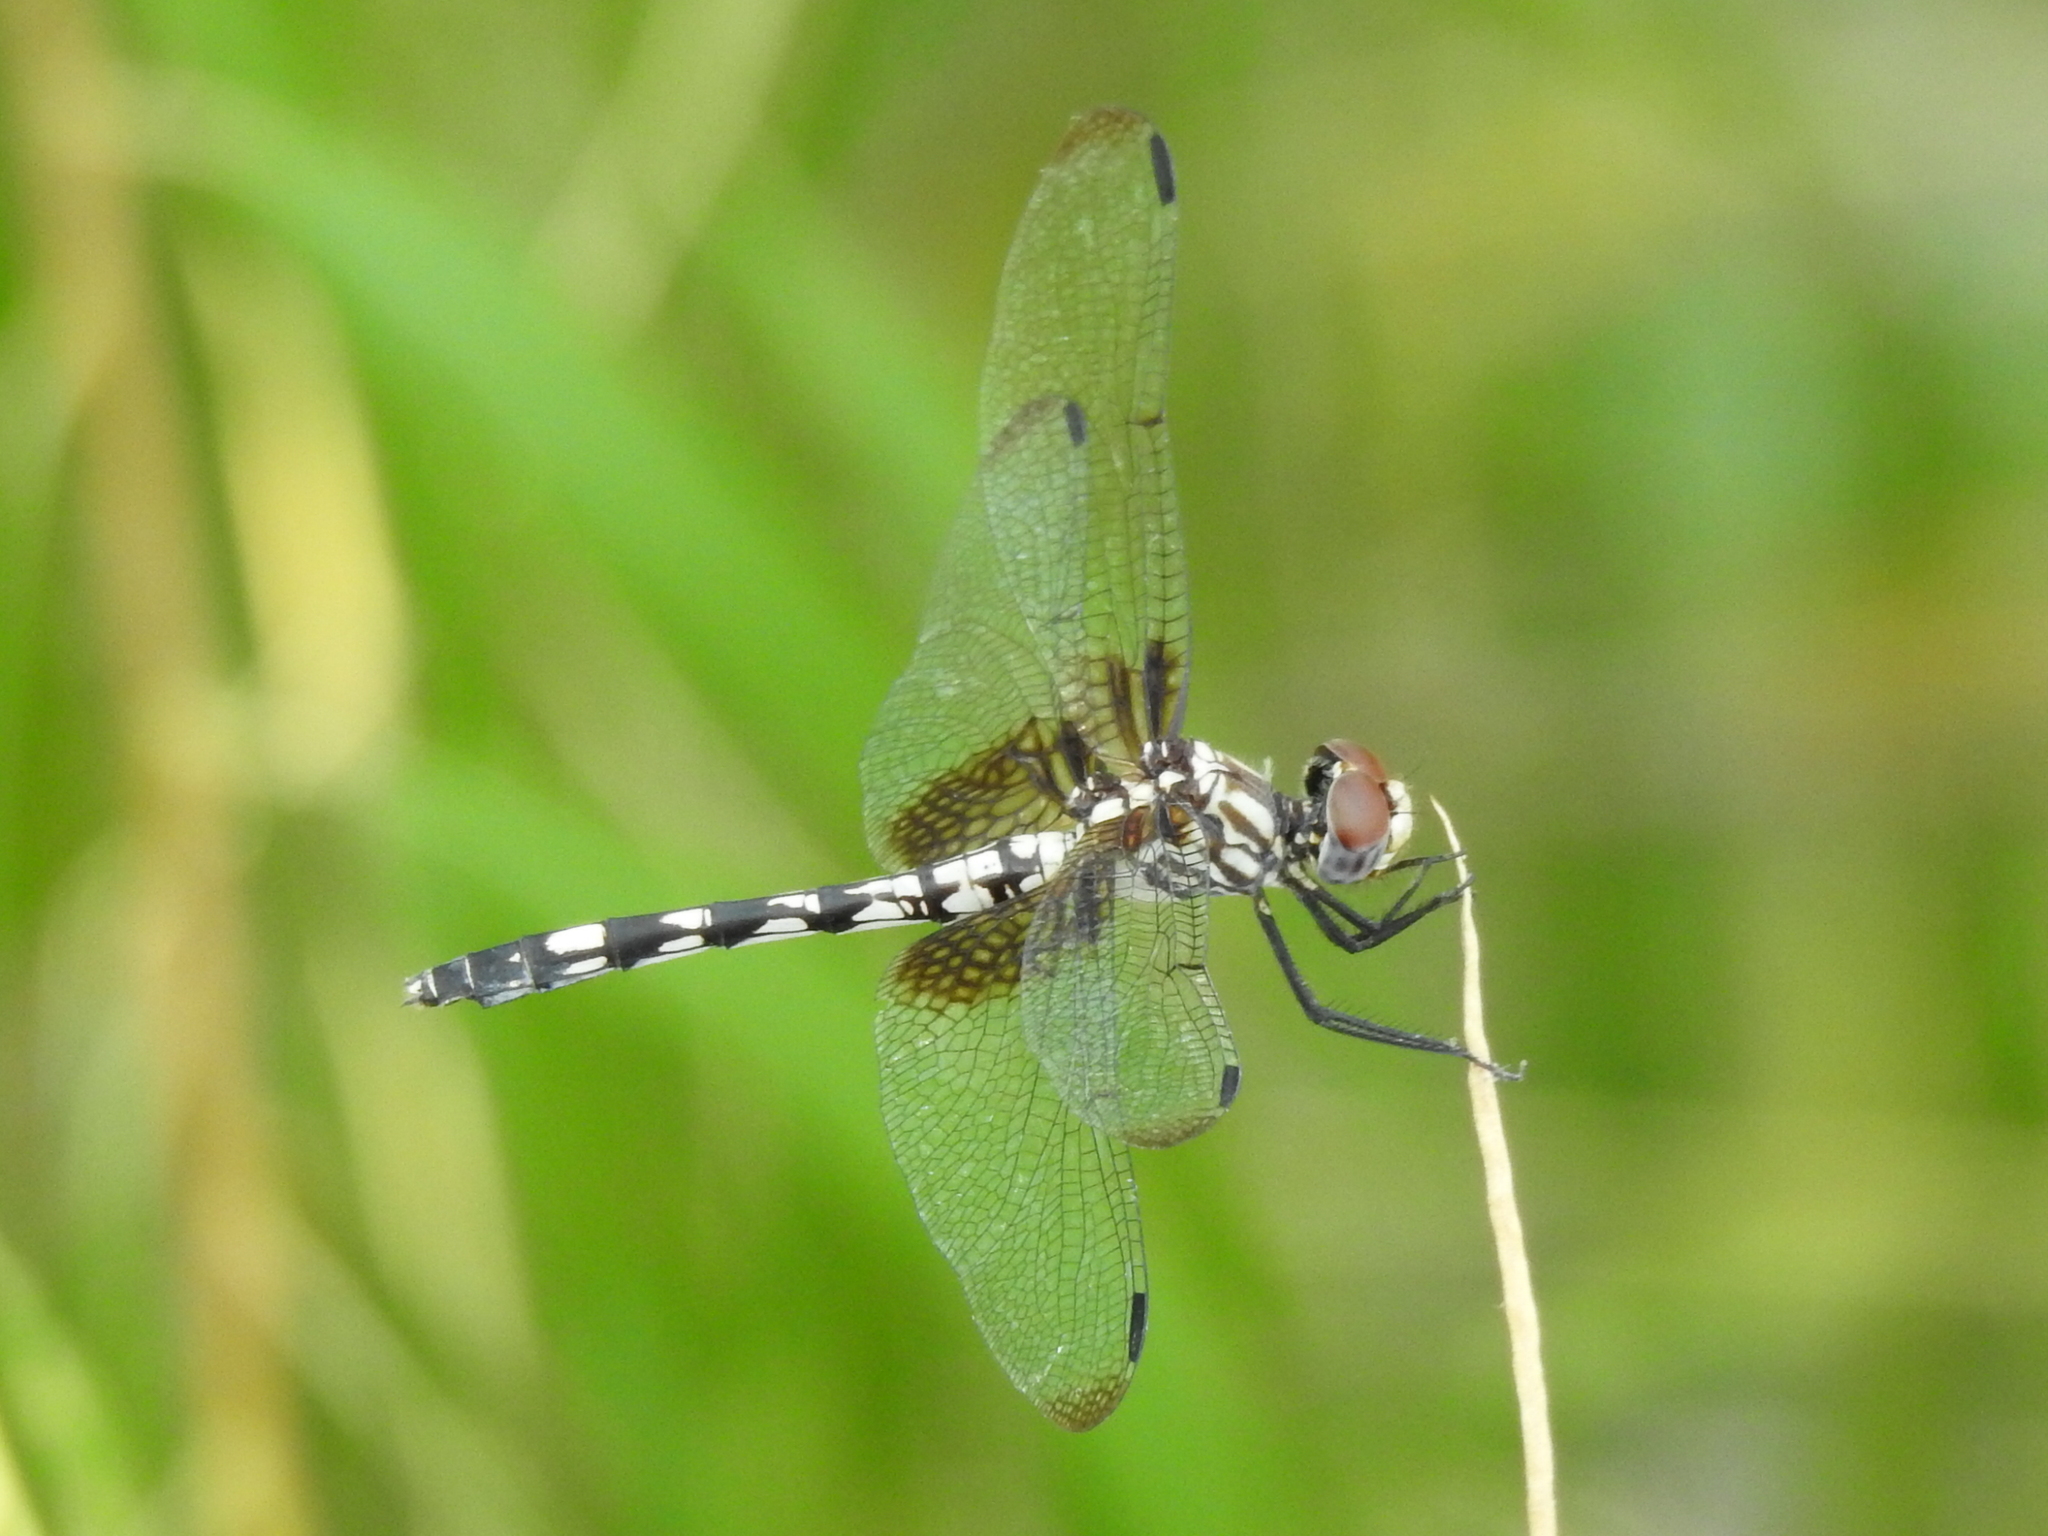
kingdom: Animalia
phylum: Arthropoda
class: Insecta
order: Odonata
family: Libellulidae
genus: Dythemis
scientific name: Dythemis fugax
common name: Checkered setwing
